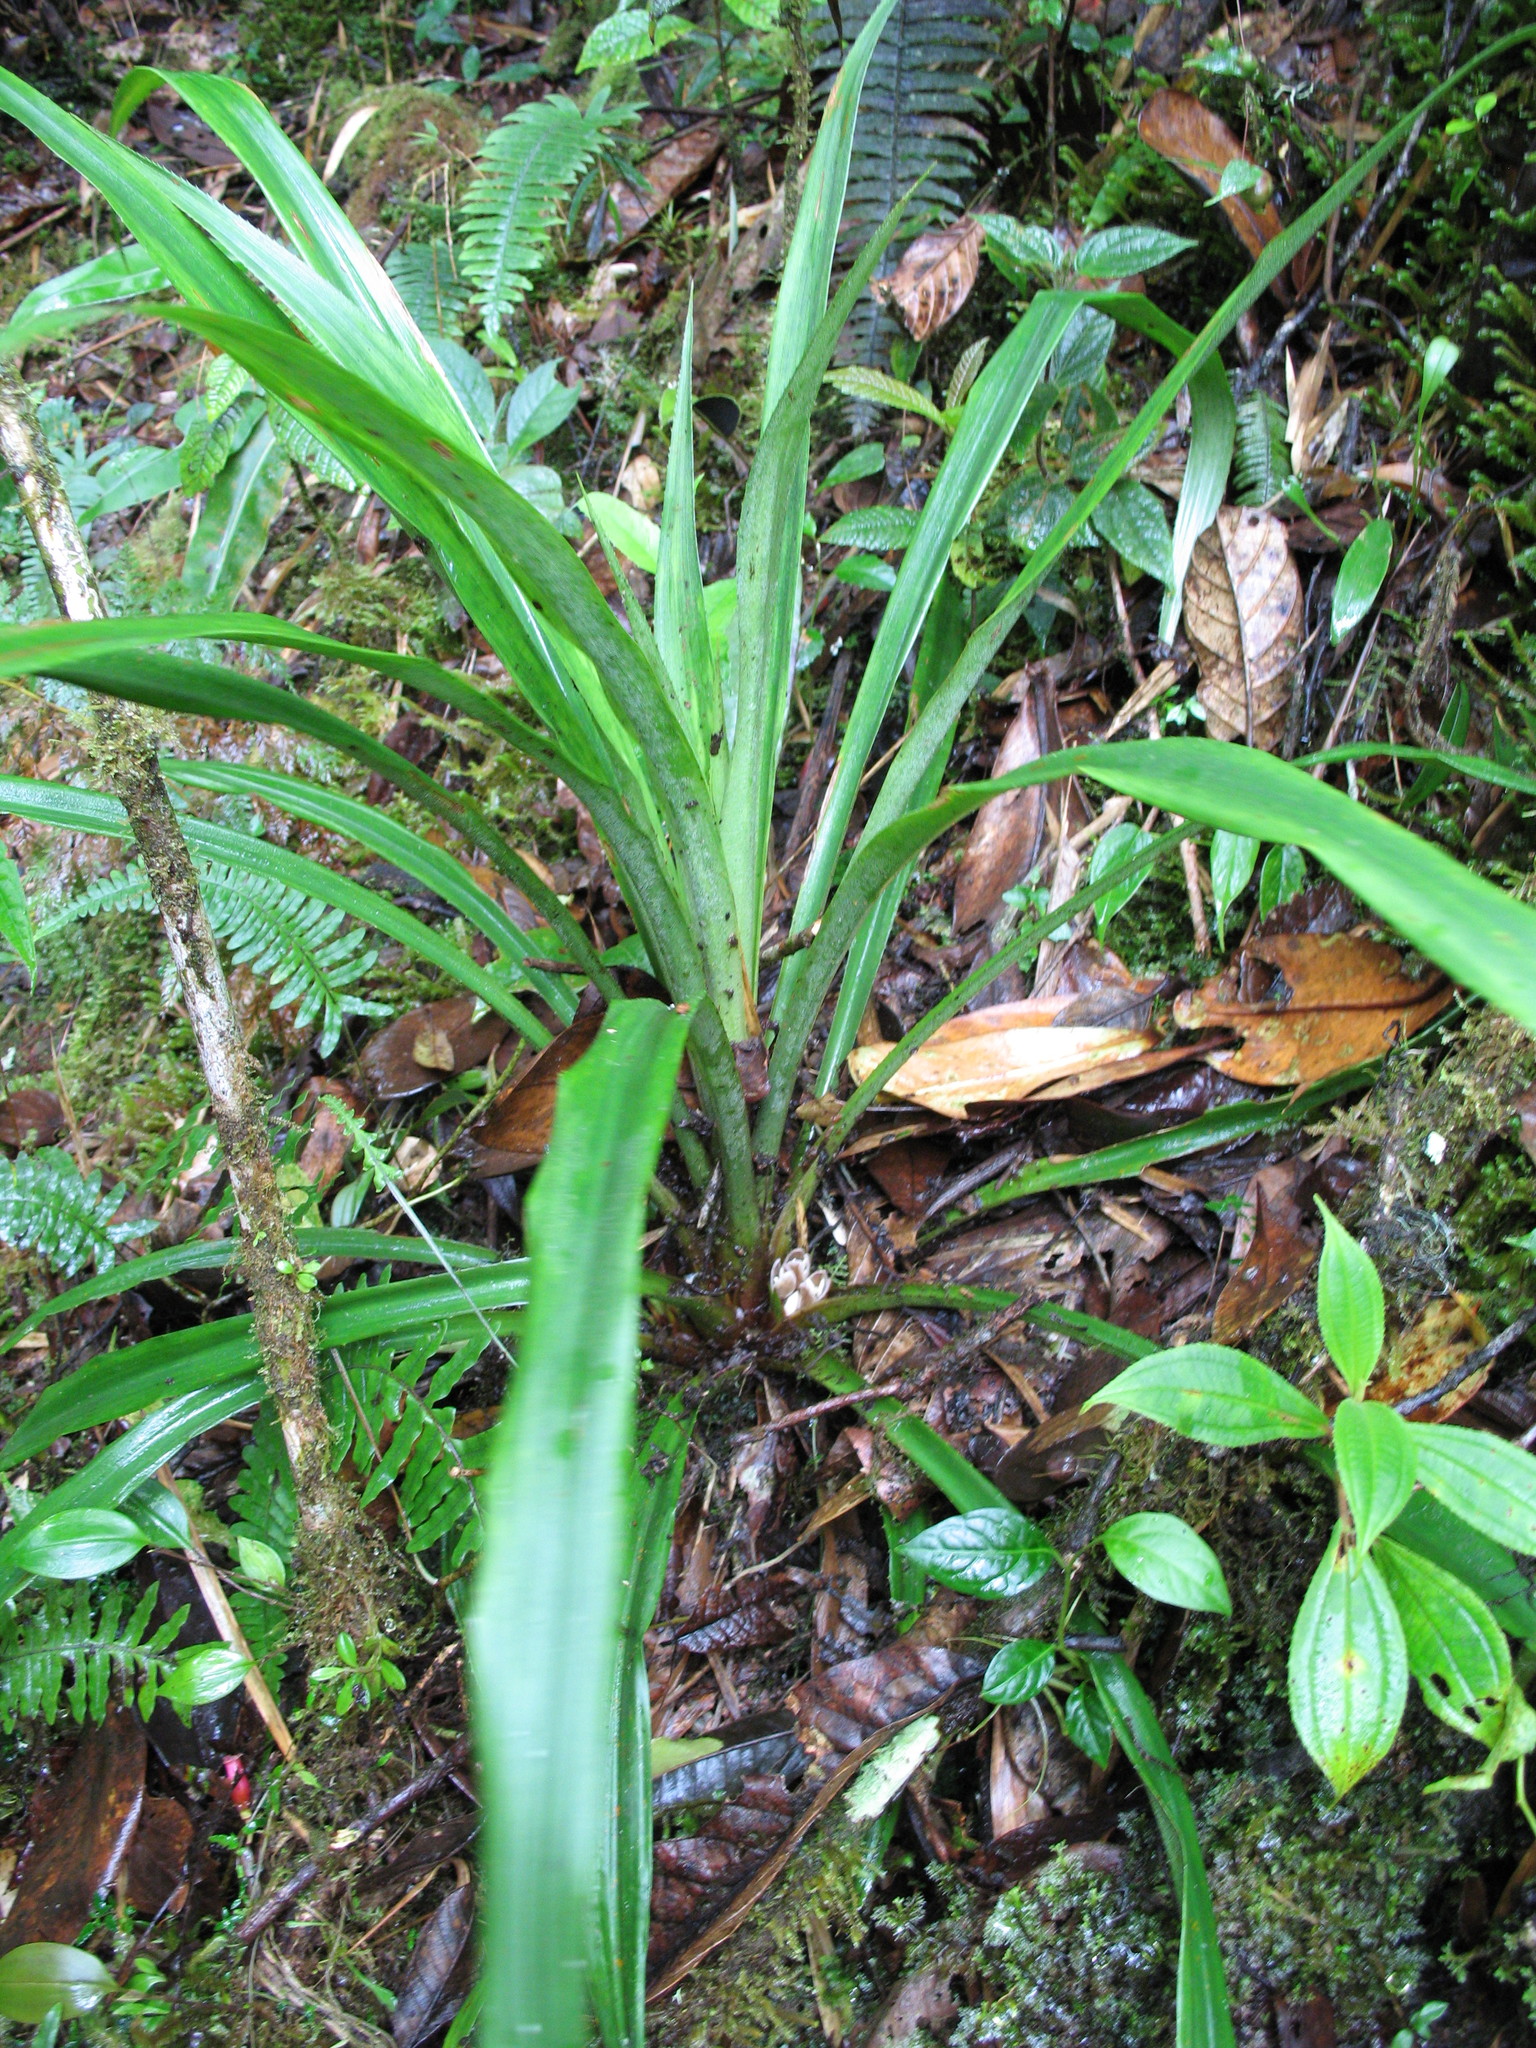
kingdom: Plantae
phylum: Tracheophyta
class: Liliopsida
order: Poales
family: Bromeliaceae
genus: Greigia
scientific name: Greigia leymebambana
